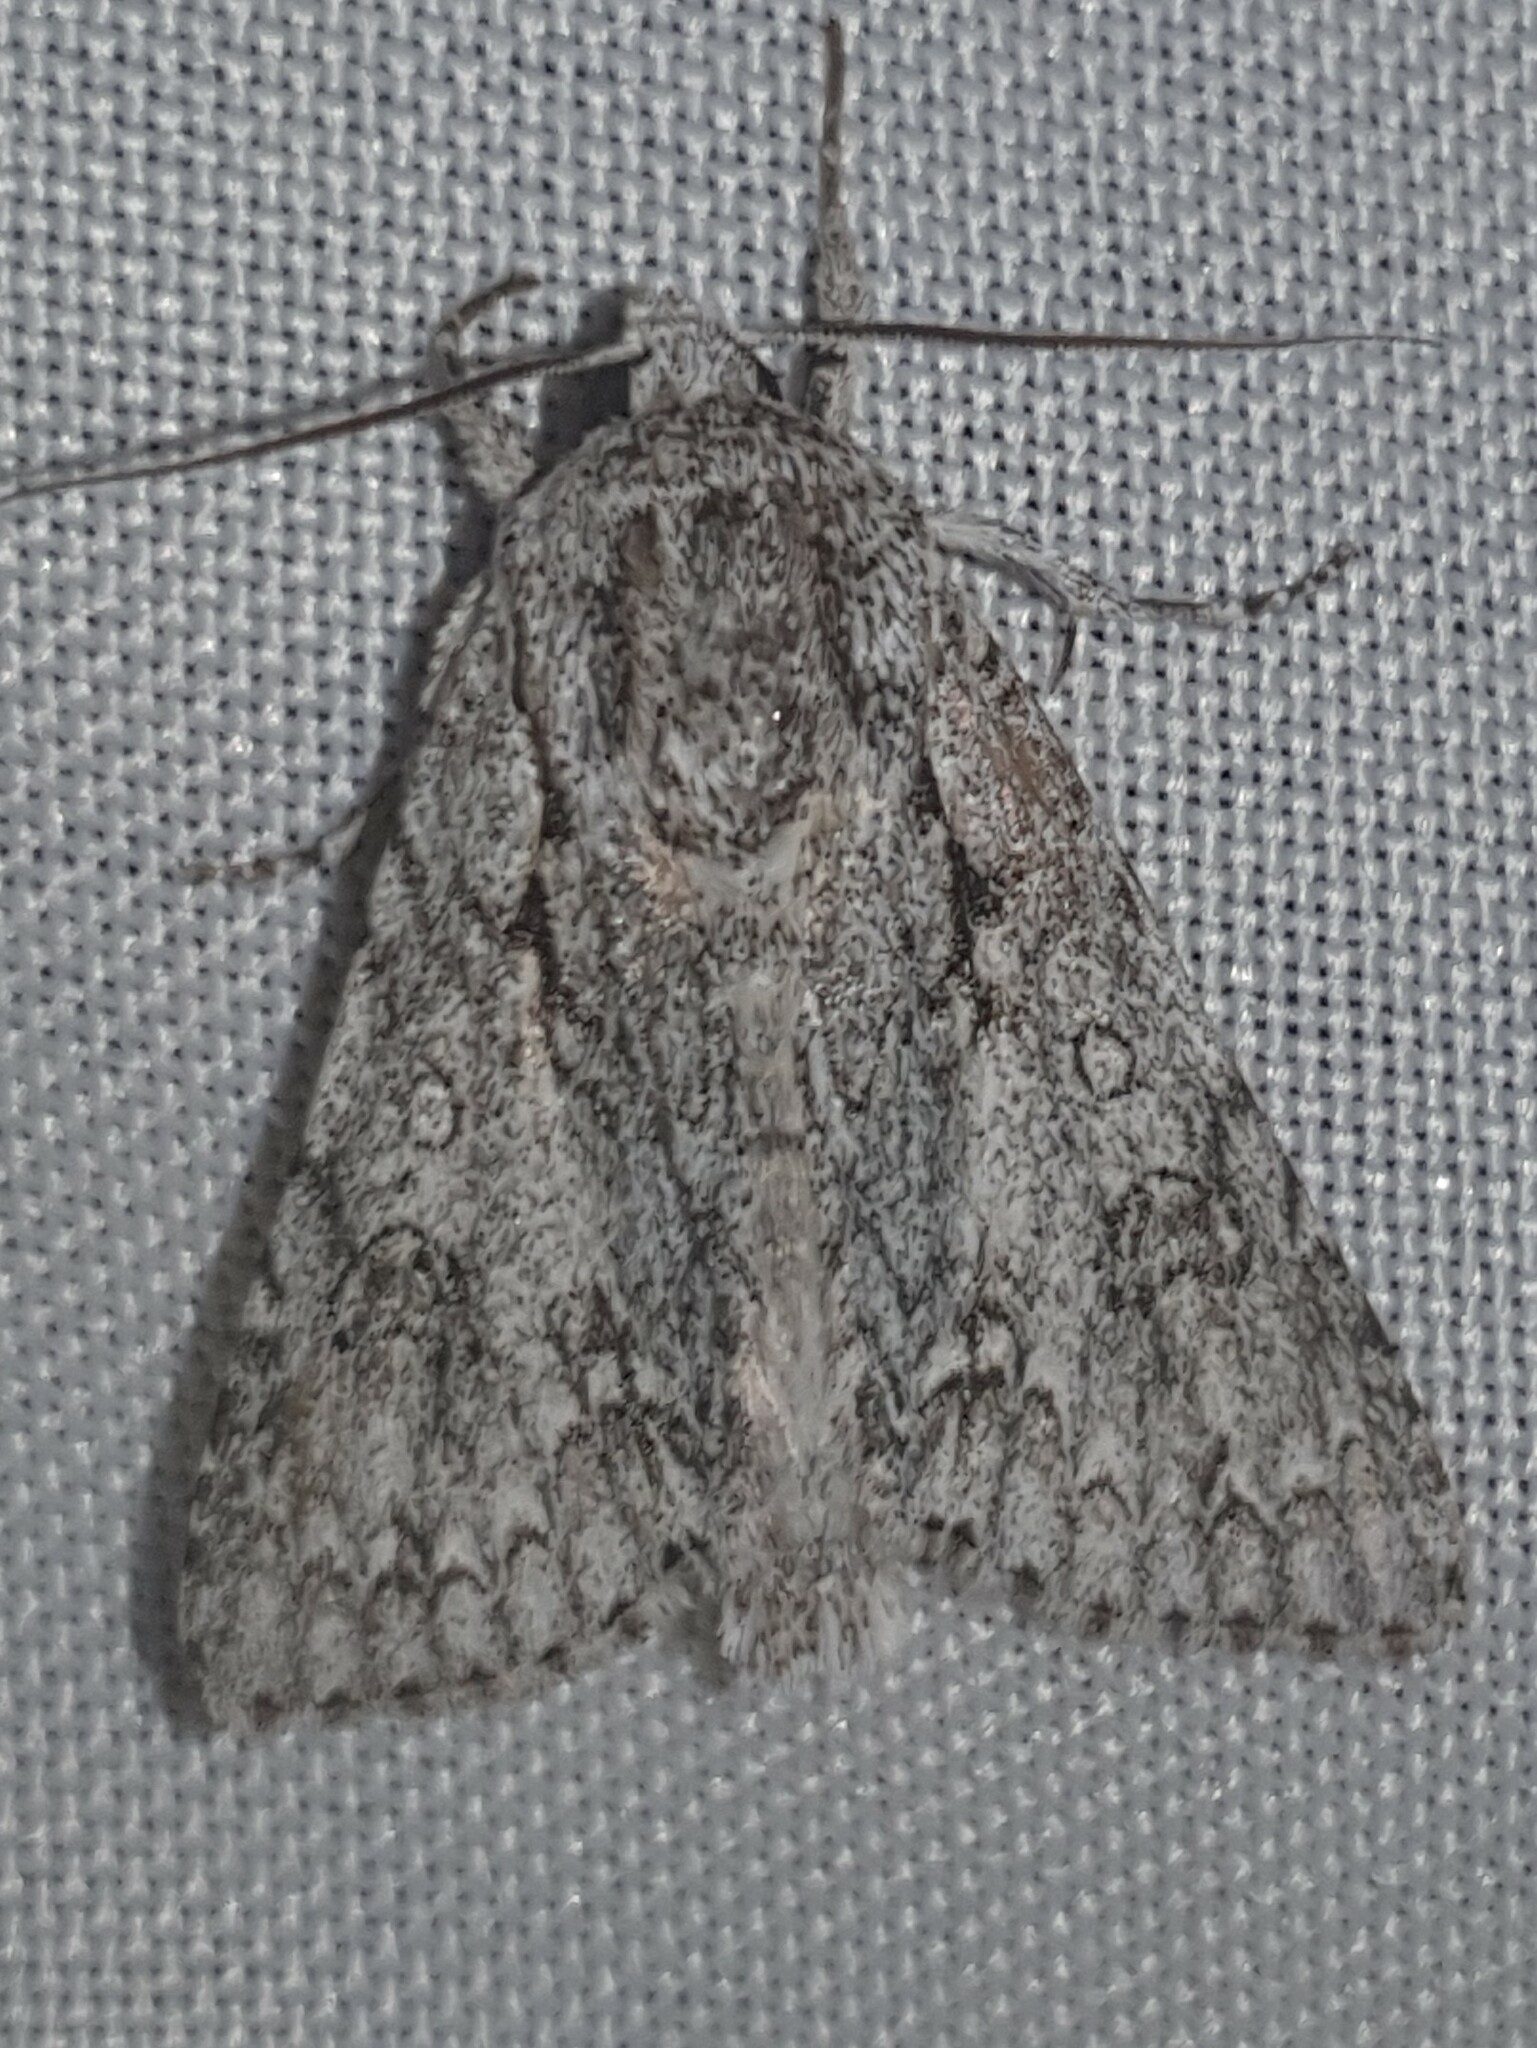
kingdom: Animalia
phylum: Arthropoda
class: Insecta
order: Lepidoptera
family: Noctuidae
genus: Acronicta
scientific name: Acronicta aceris
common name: Sycamore
